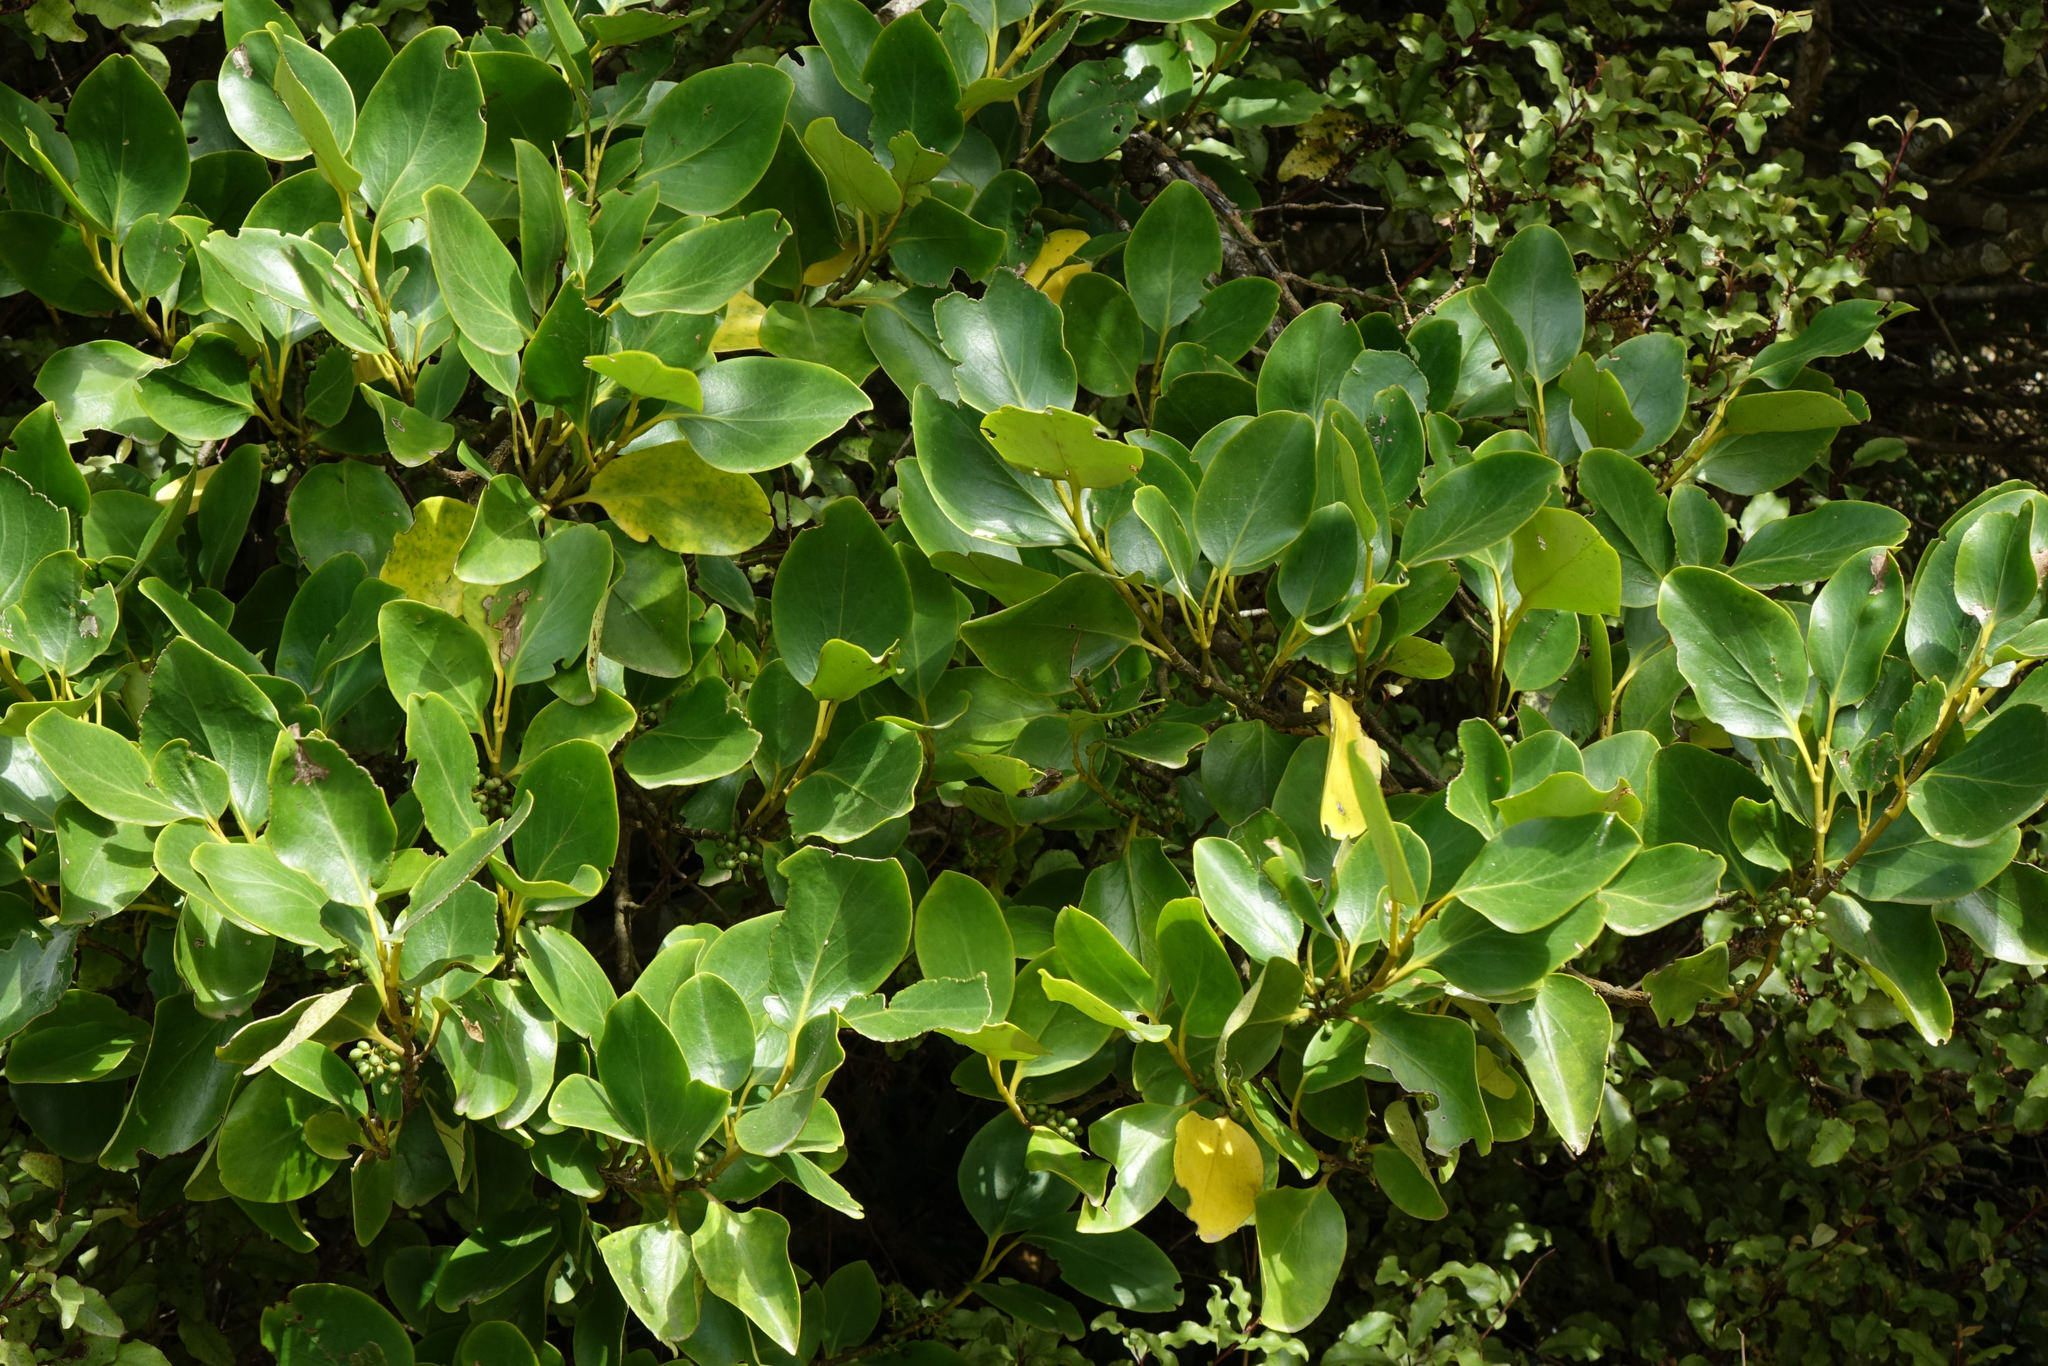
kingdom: Plantae
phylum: Tracheophyta
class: Magnoliopsida
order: Apiales
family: Griseliniaceae
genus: Griselinia
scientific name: Griselinia littoralis
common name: New zealand broadleaf
